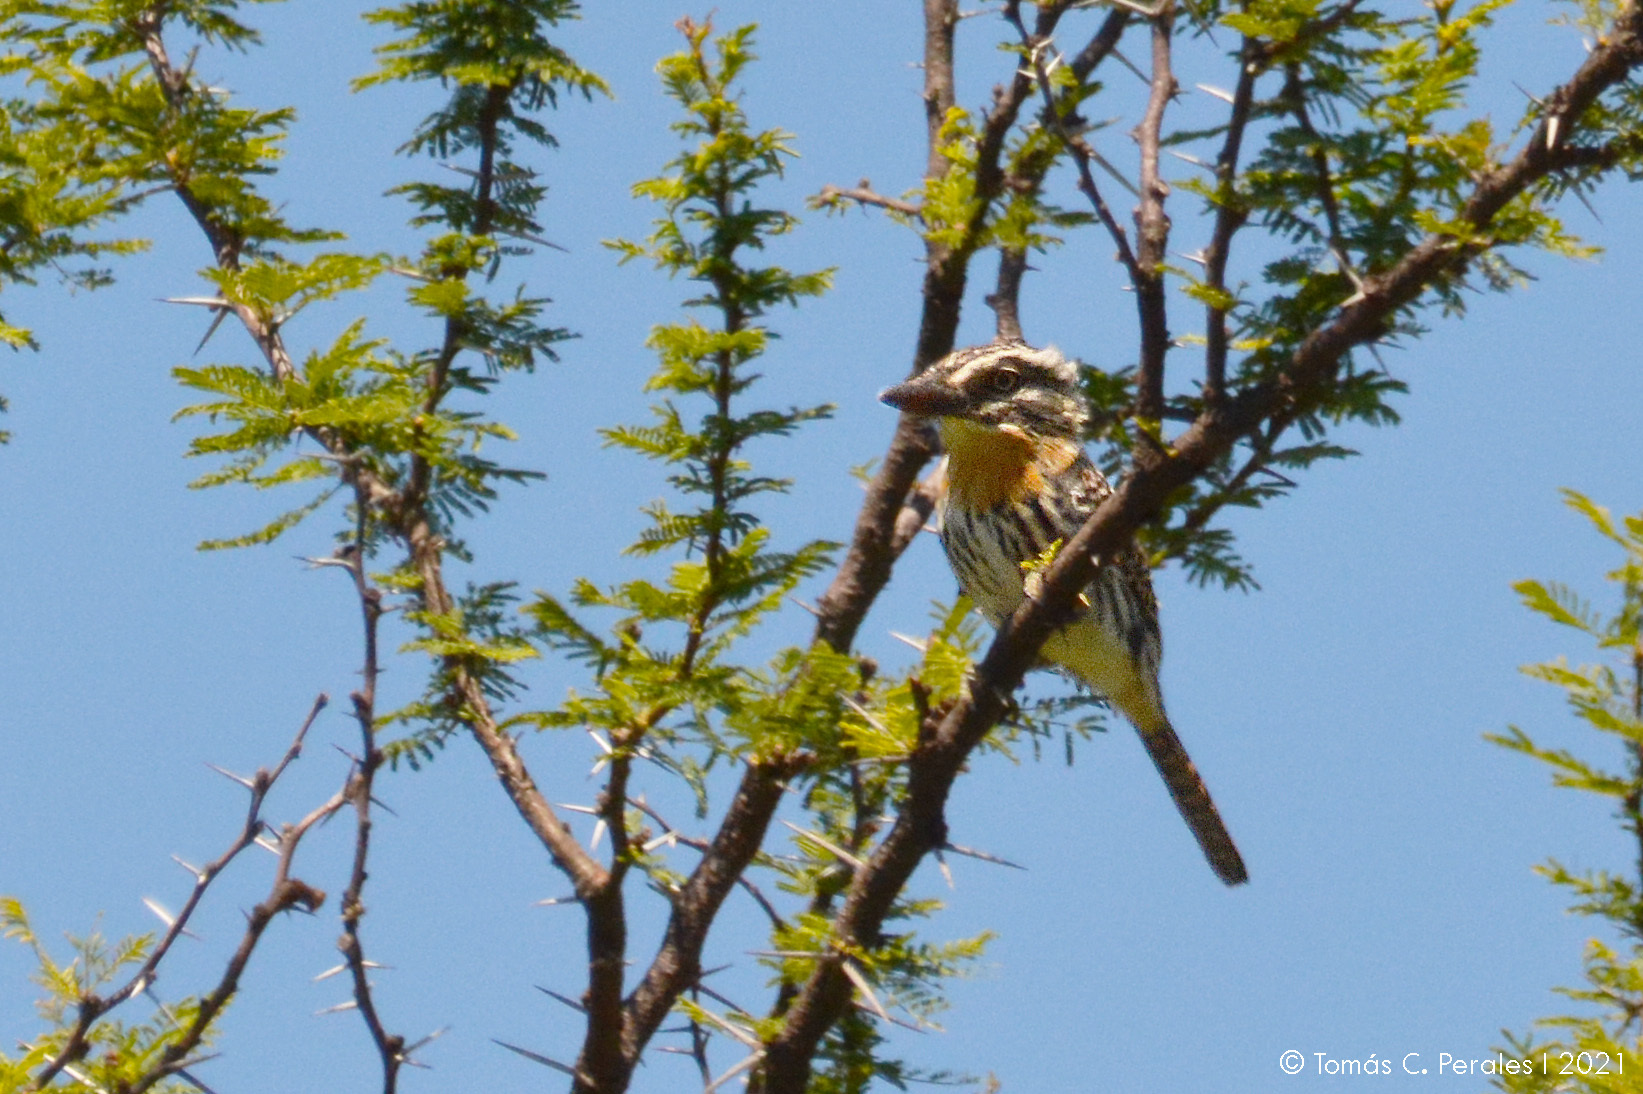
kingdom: Animalia
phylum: Chordata
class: Aves
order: Piciformes
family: Bucconidae
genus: Nystalus
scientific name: Nystalus maculatus
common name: Caatinga puffbird
